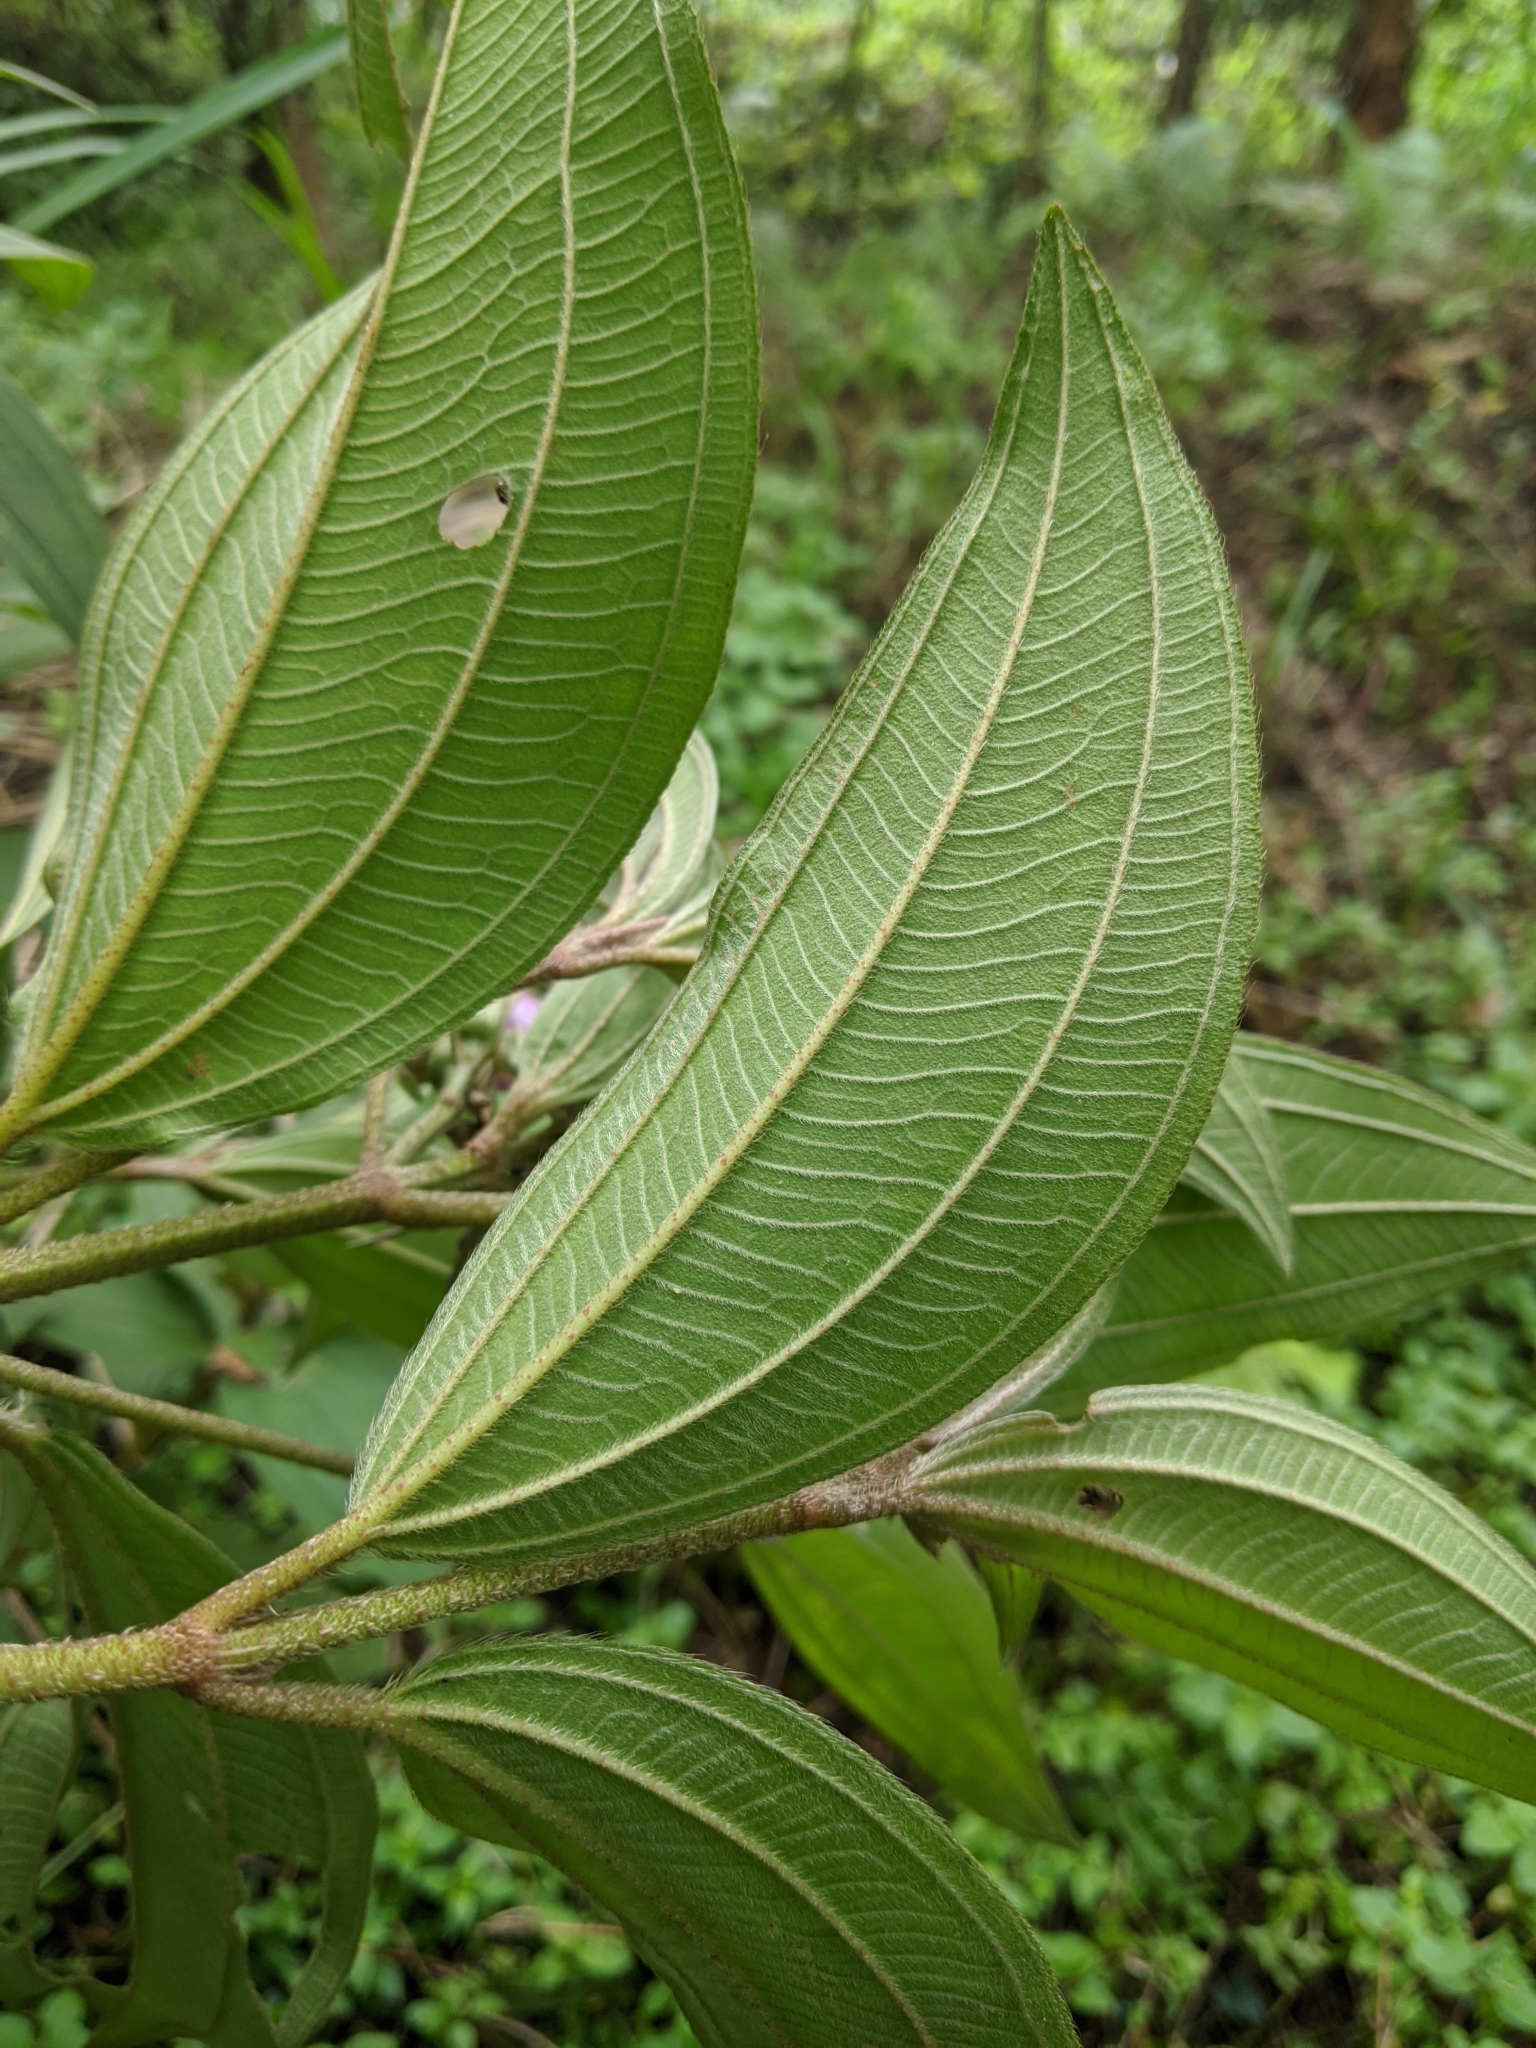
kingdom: Plantae
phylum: Tracheophyta
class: Magnoliopsida
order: Myrtales
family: Melastomataceae
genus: Melastoma
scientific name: Melastoma malabathricum
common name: Indian-rhododendron
